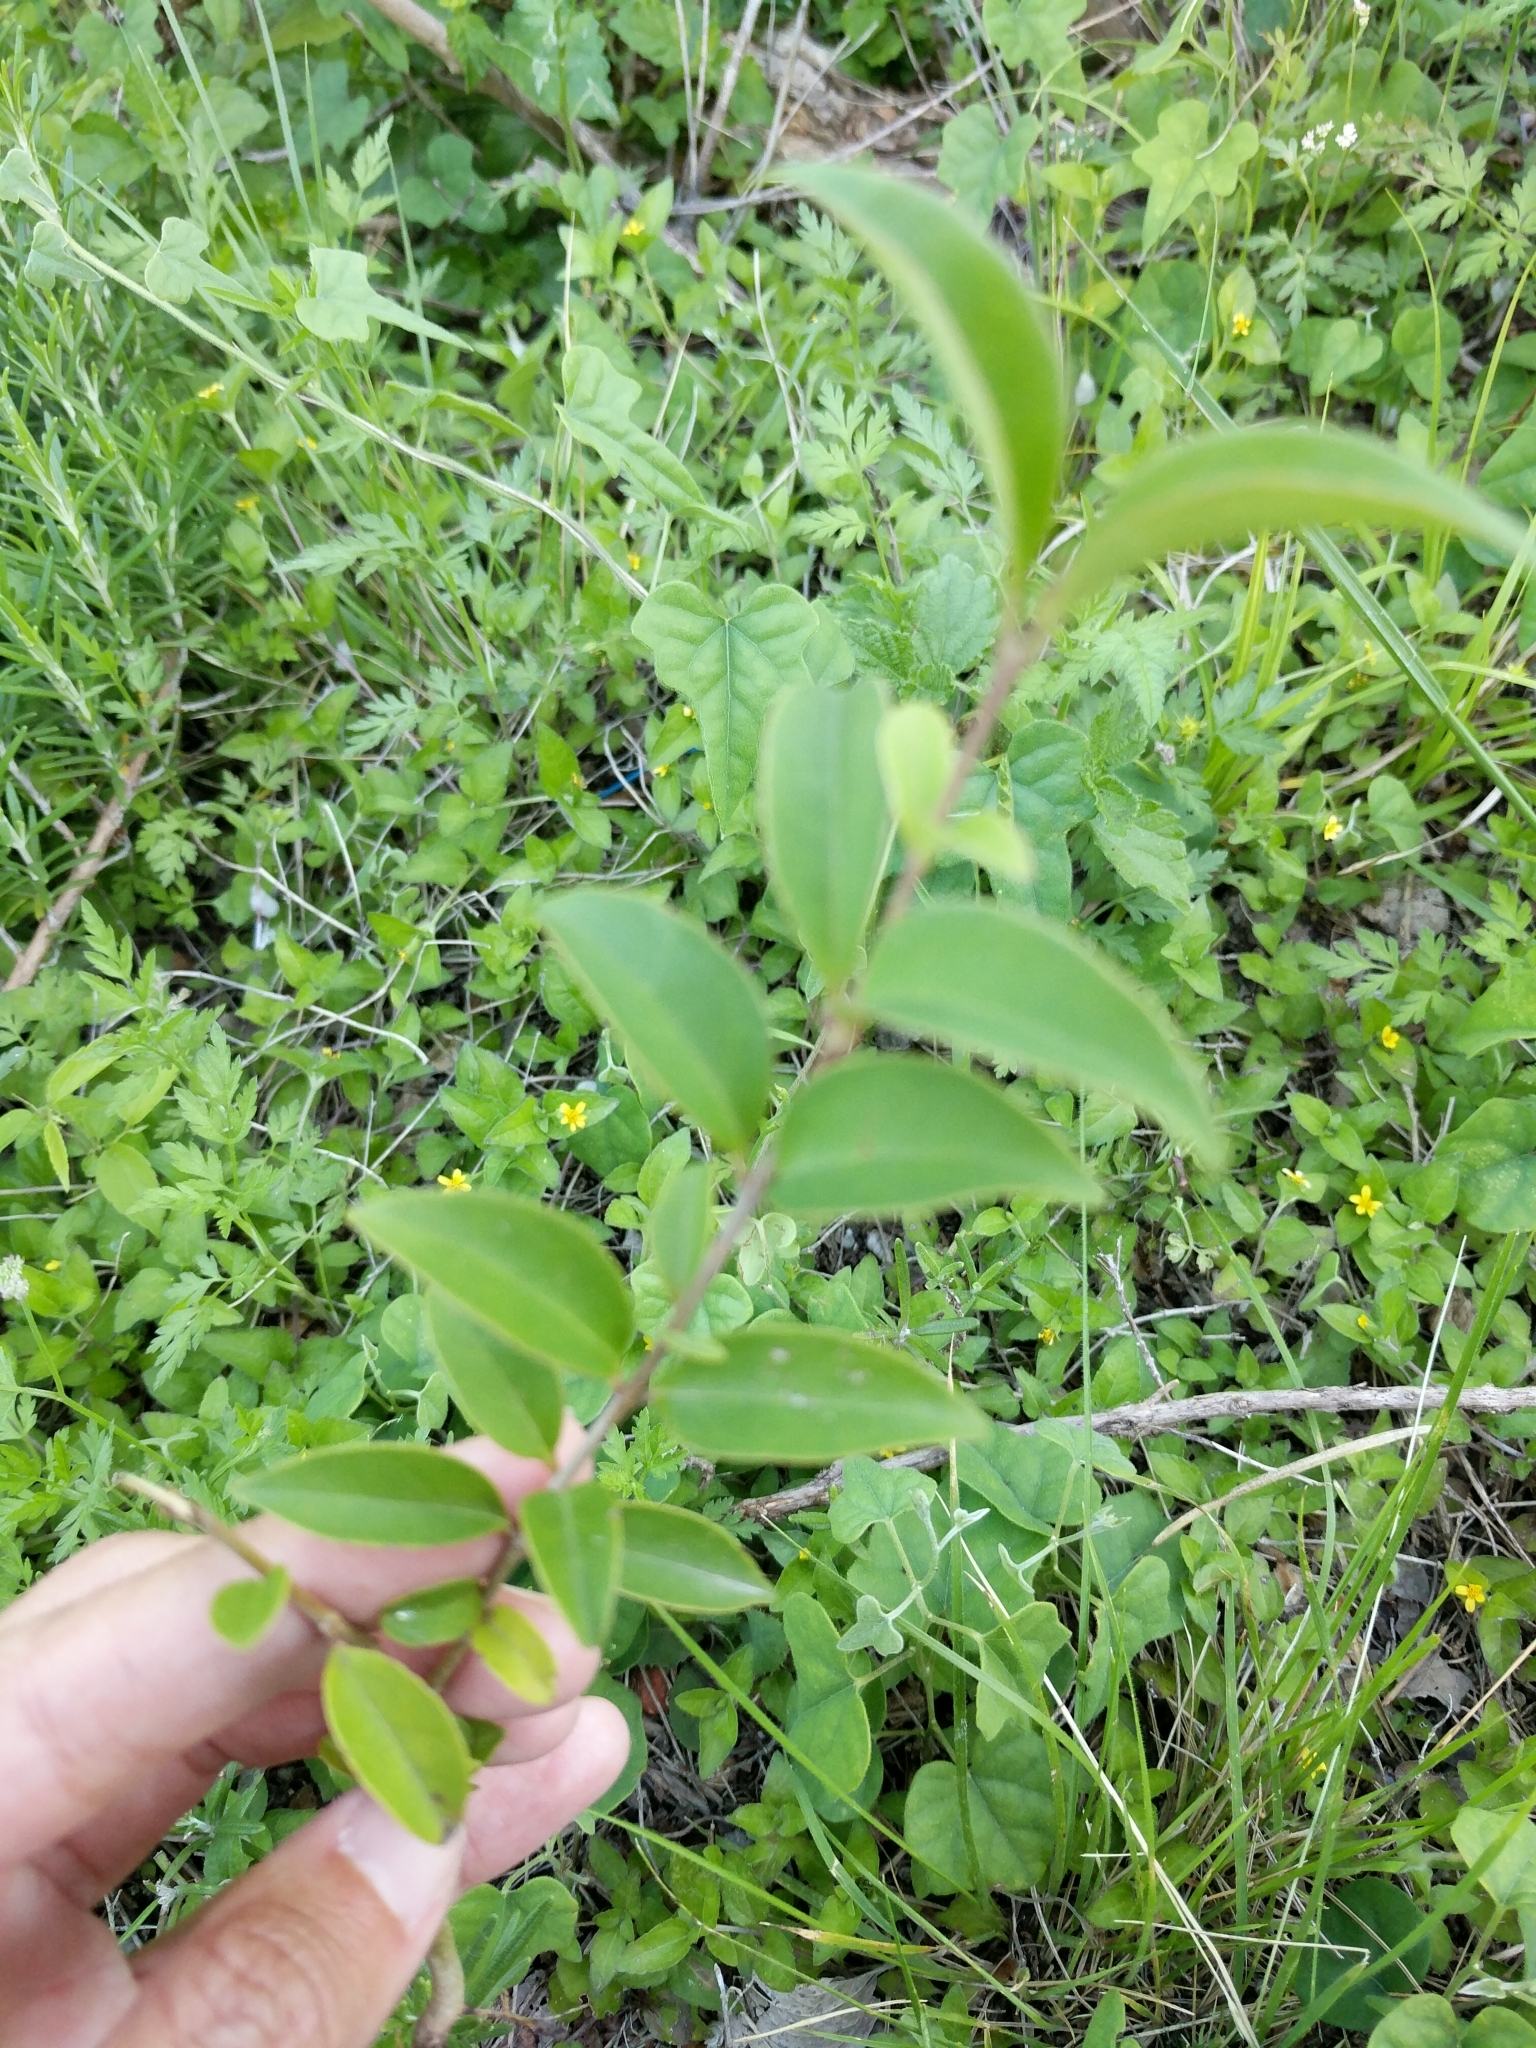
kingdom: Plantae
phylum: Tracheophyta
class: Magnoliopsida
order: Lamiales
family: Oleaceae
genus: Ligustrum
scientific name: Ligustrum lucidum
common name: Glossy privet
